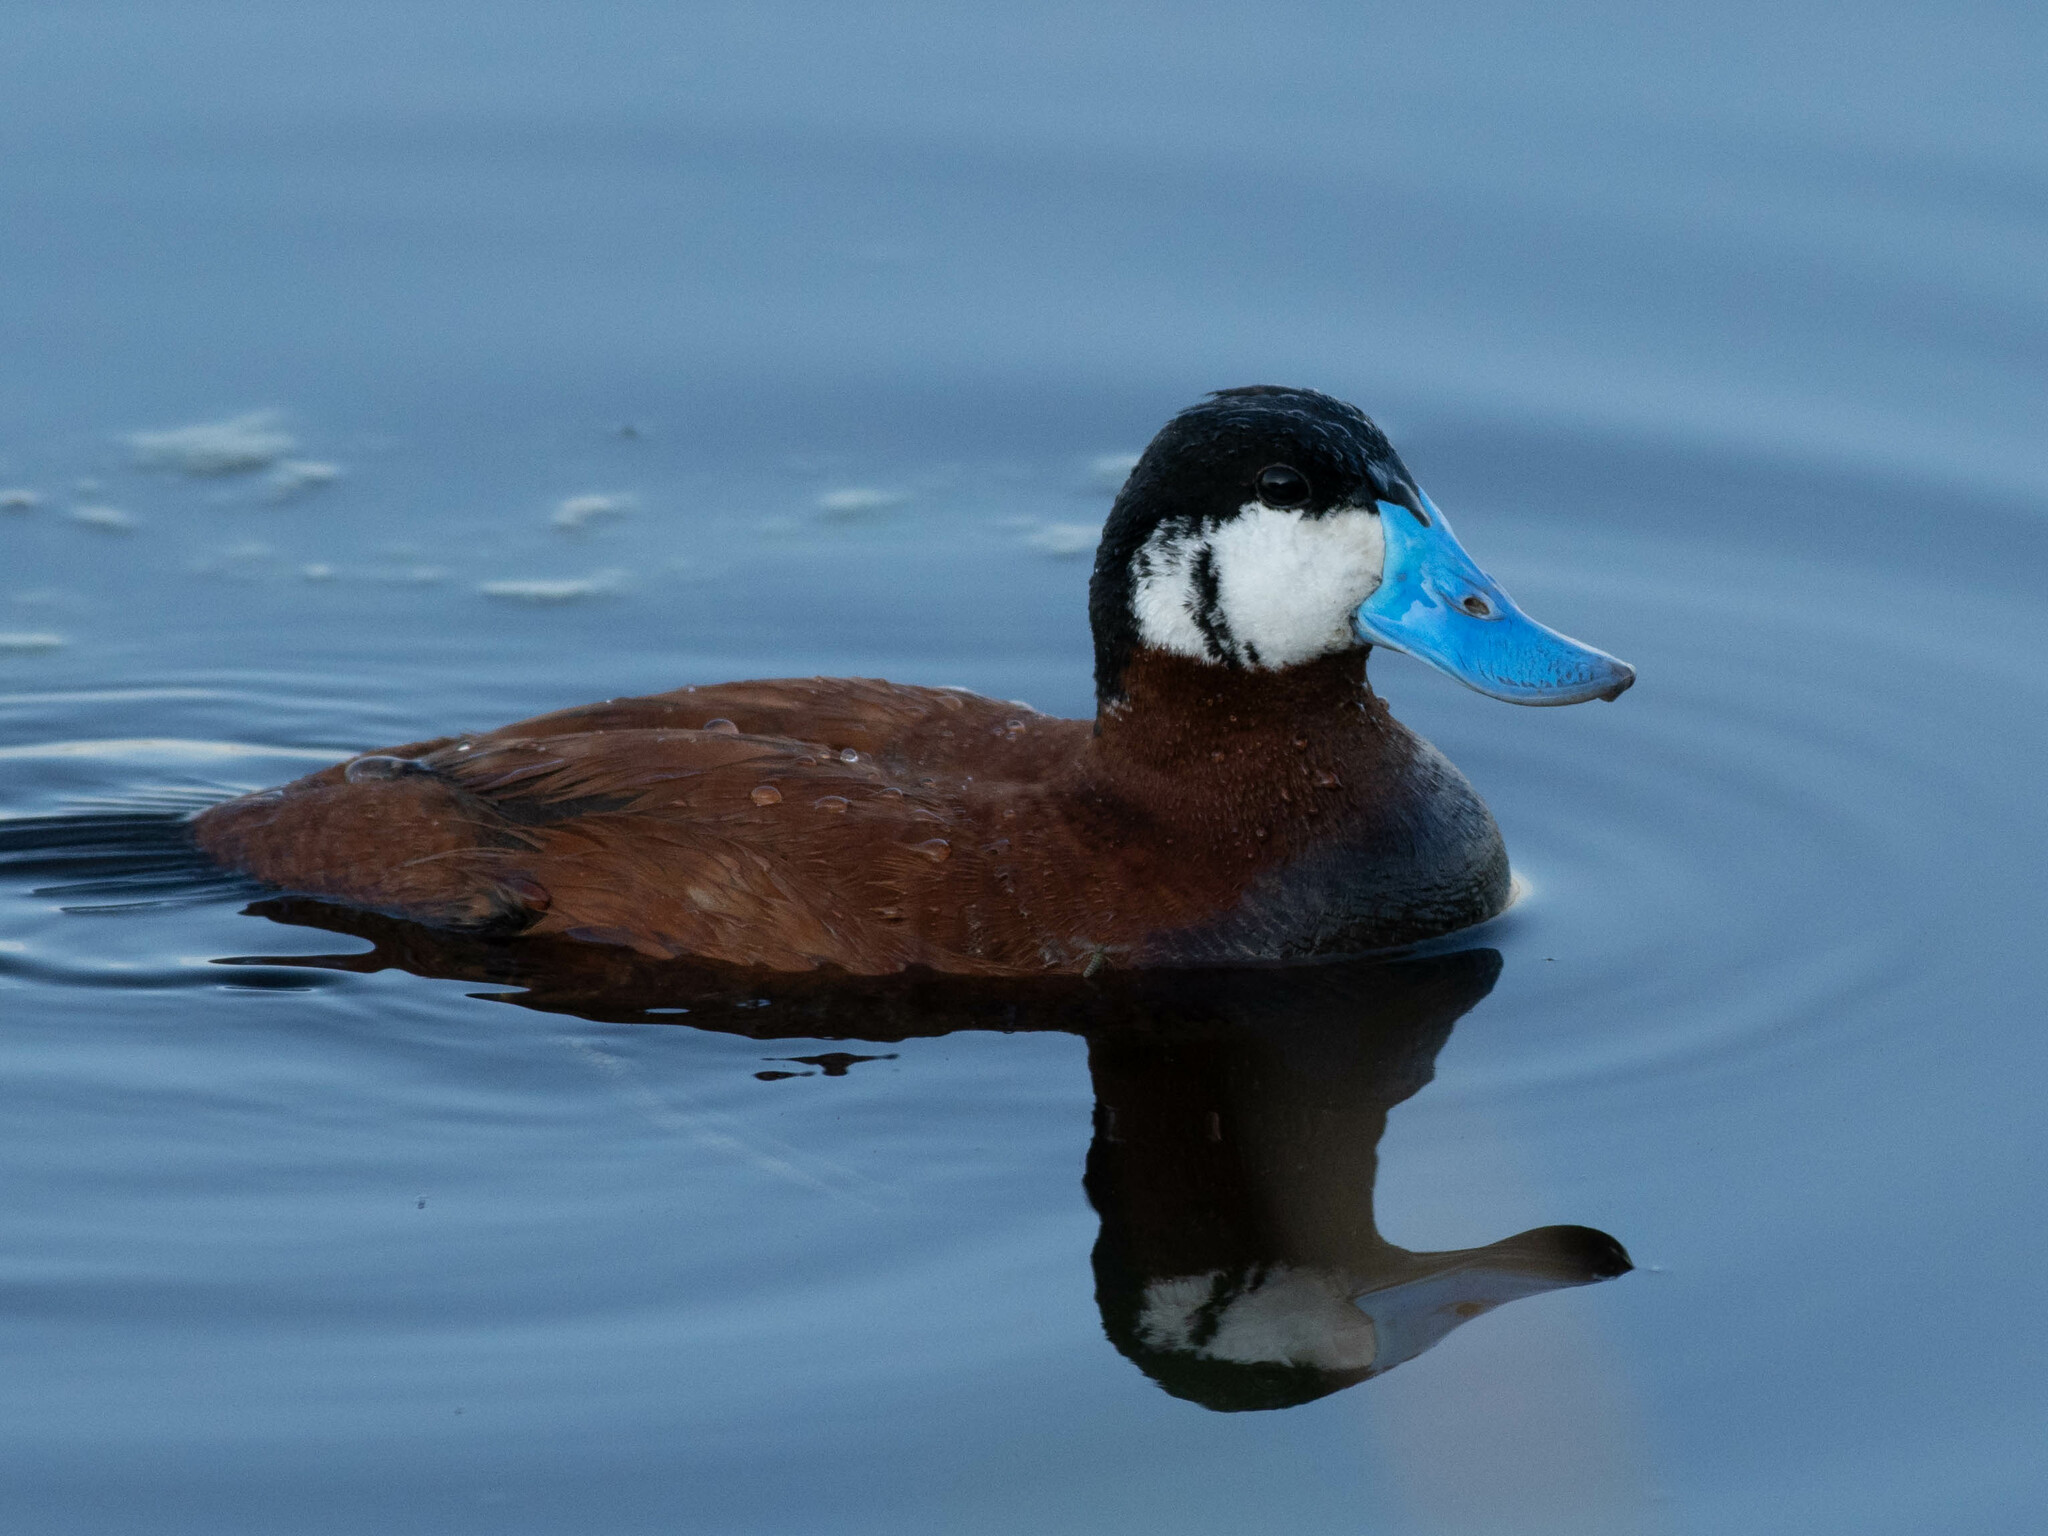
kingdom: Animalia
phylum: Chordata
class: Aves
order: Anseriformes
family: Anatidae
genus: Oxyura
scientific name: Oxyura jamaicensis
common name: Ruddy duck
